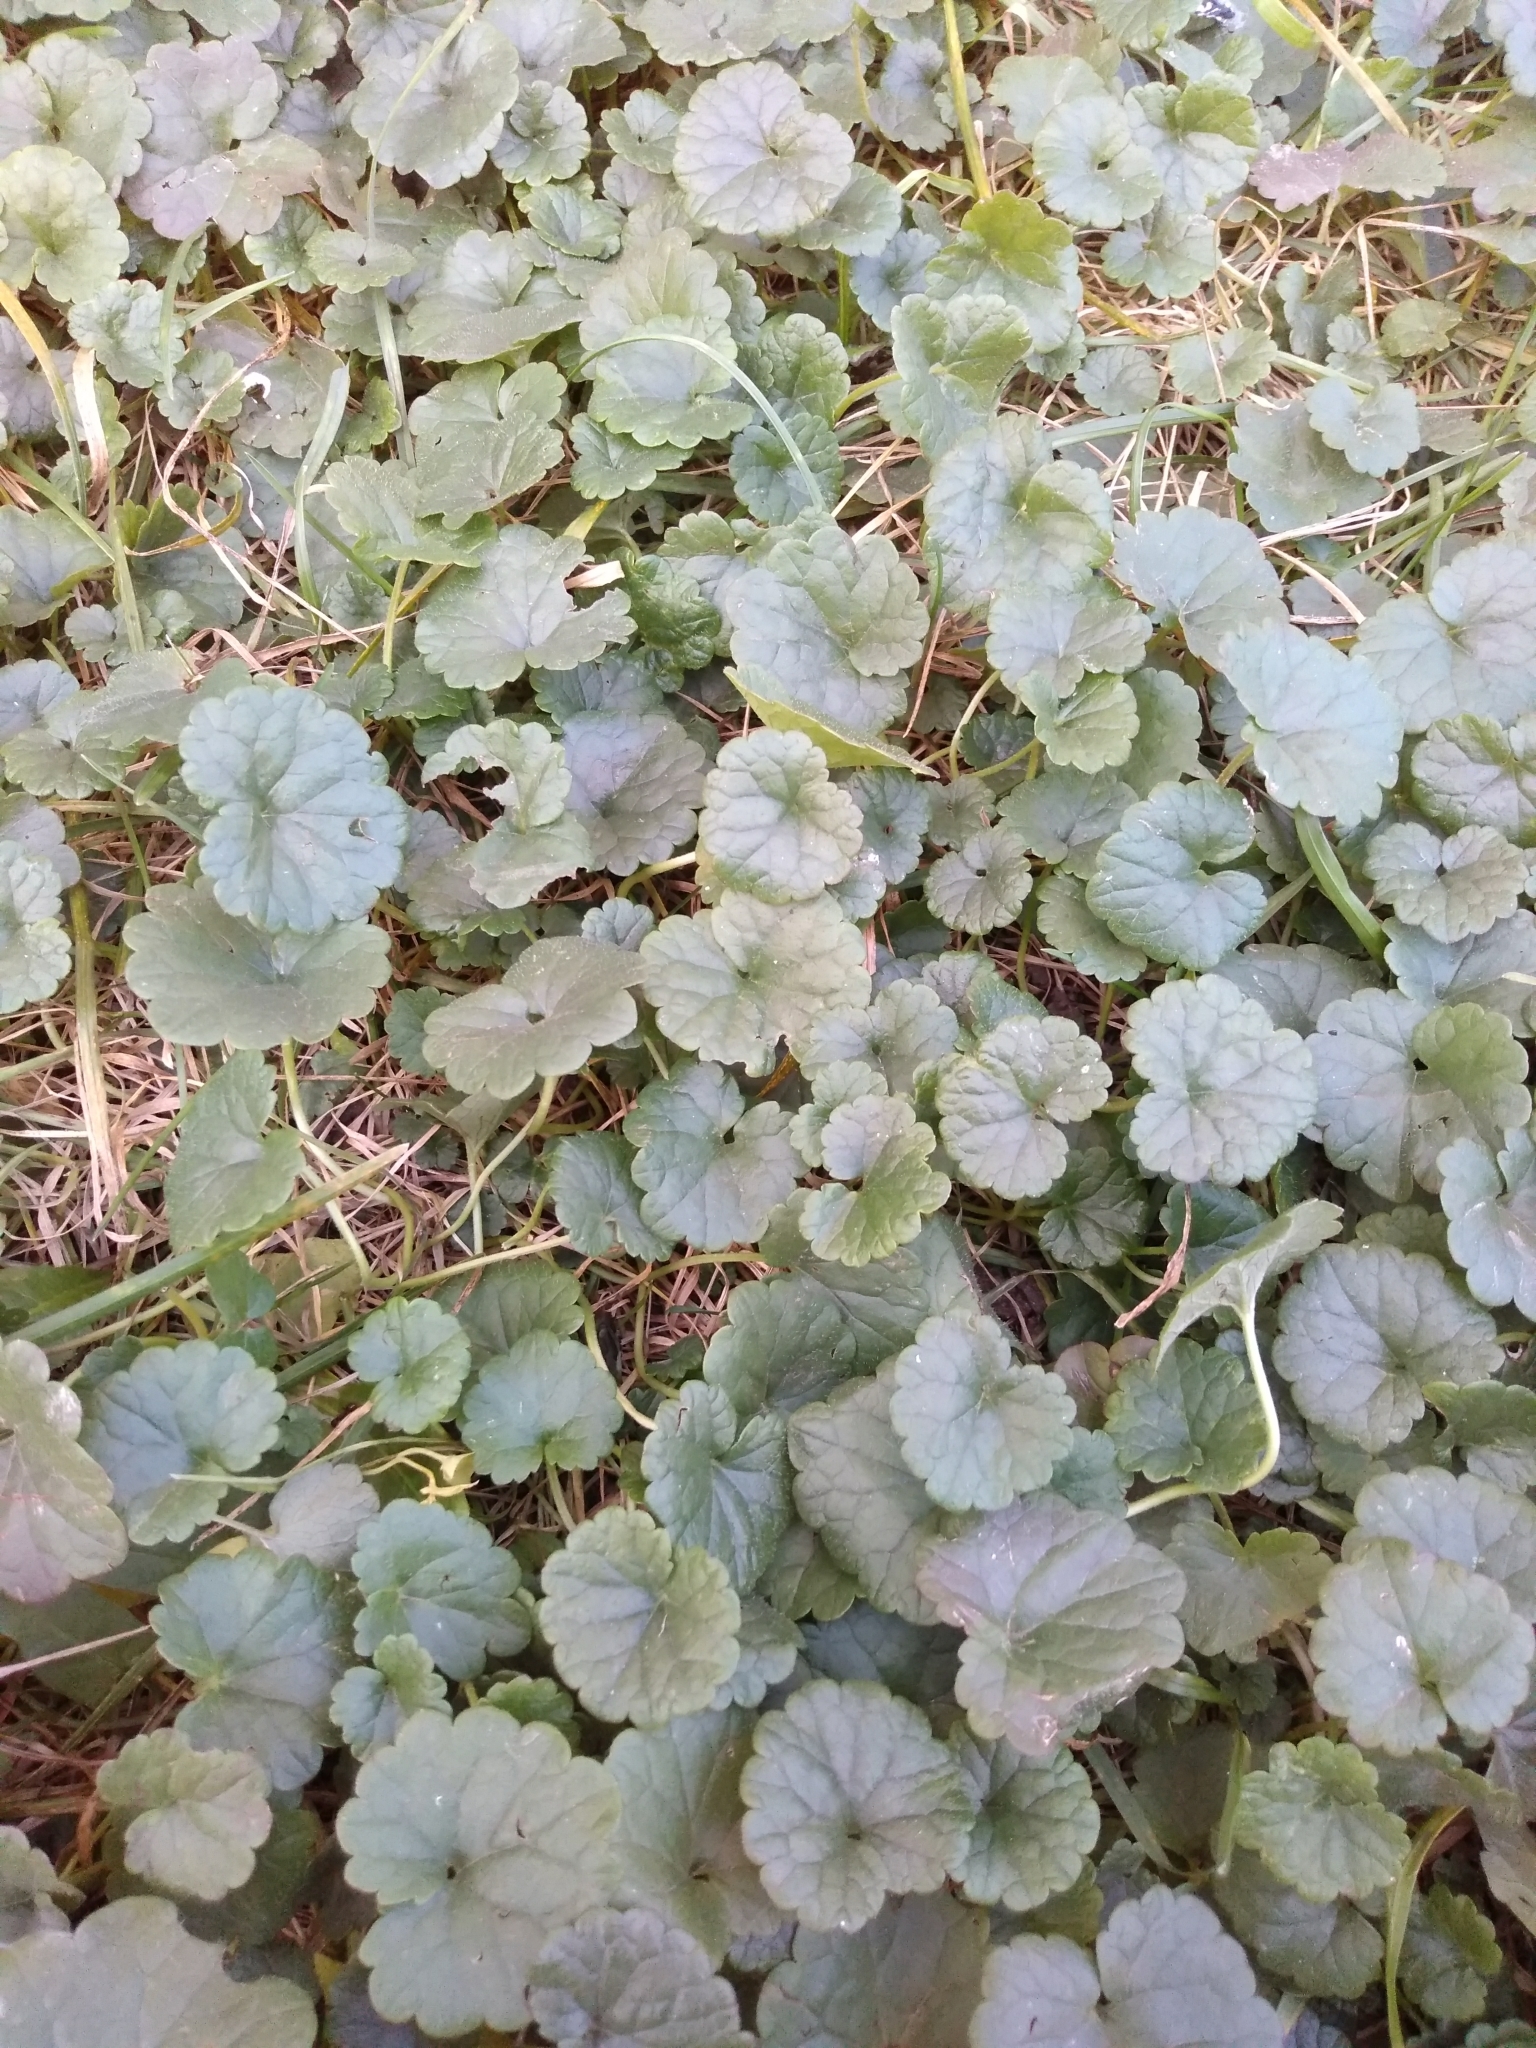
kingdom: Plantae
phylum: Tracheophyta
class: Magnoliopsida
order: Lamiales
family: Lamiaceae
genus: Glechoma
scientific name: Glechoma hederacea
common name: Ground ivy
